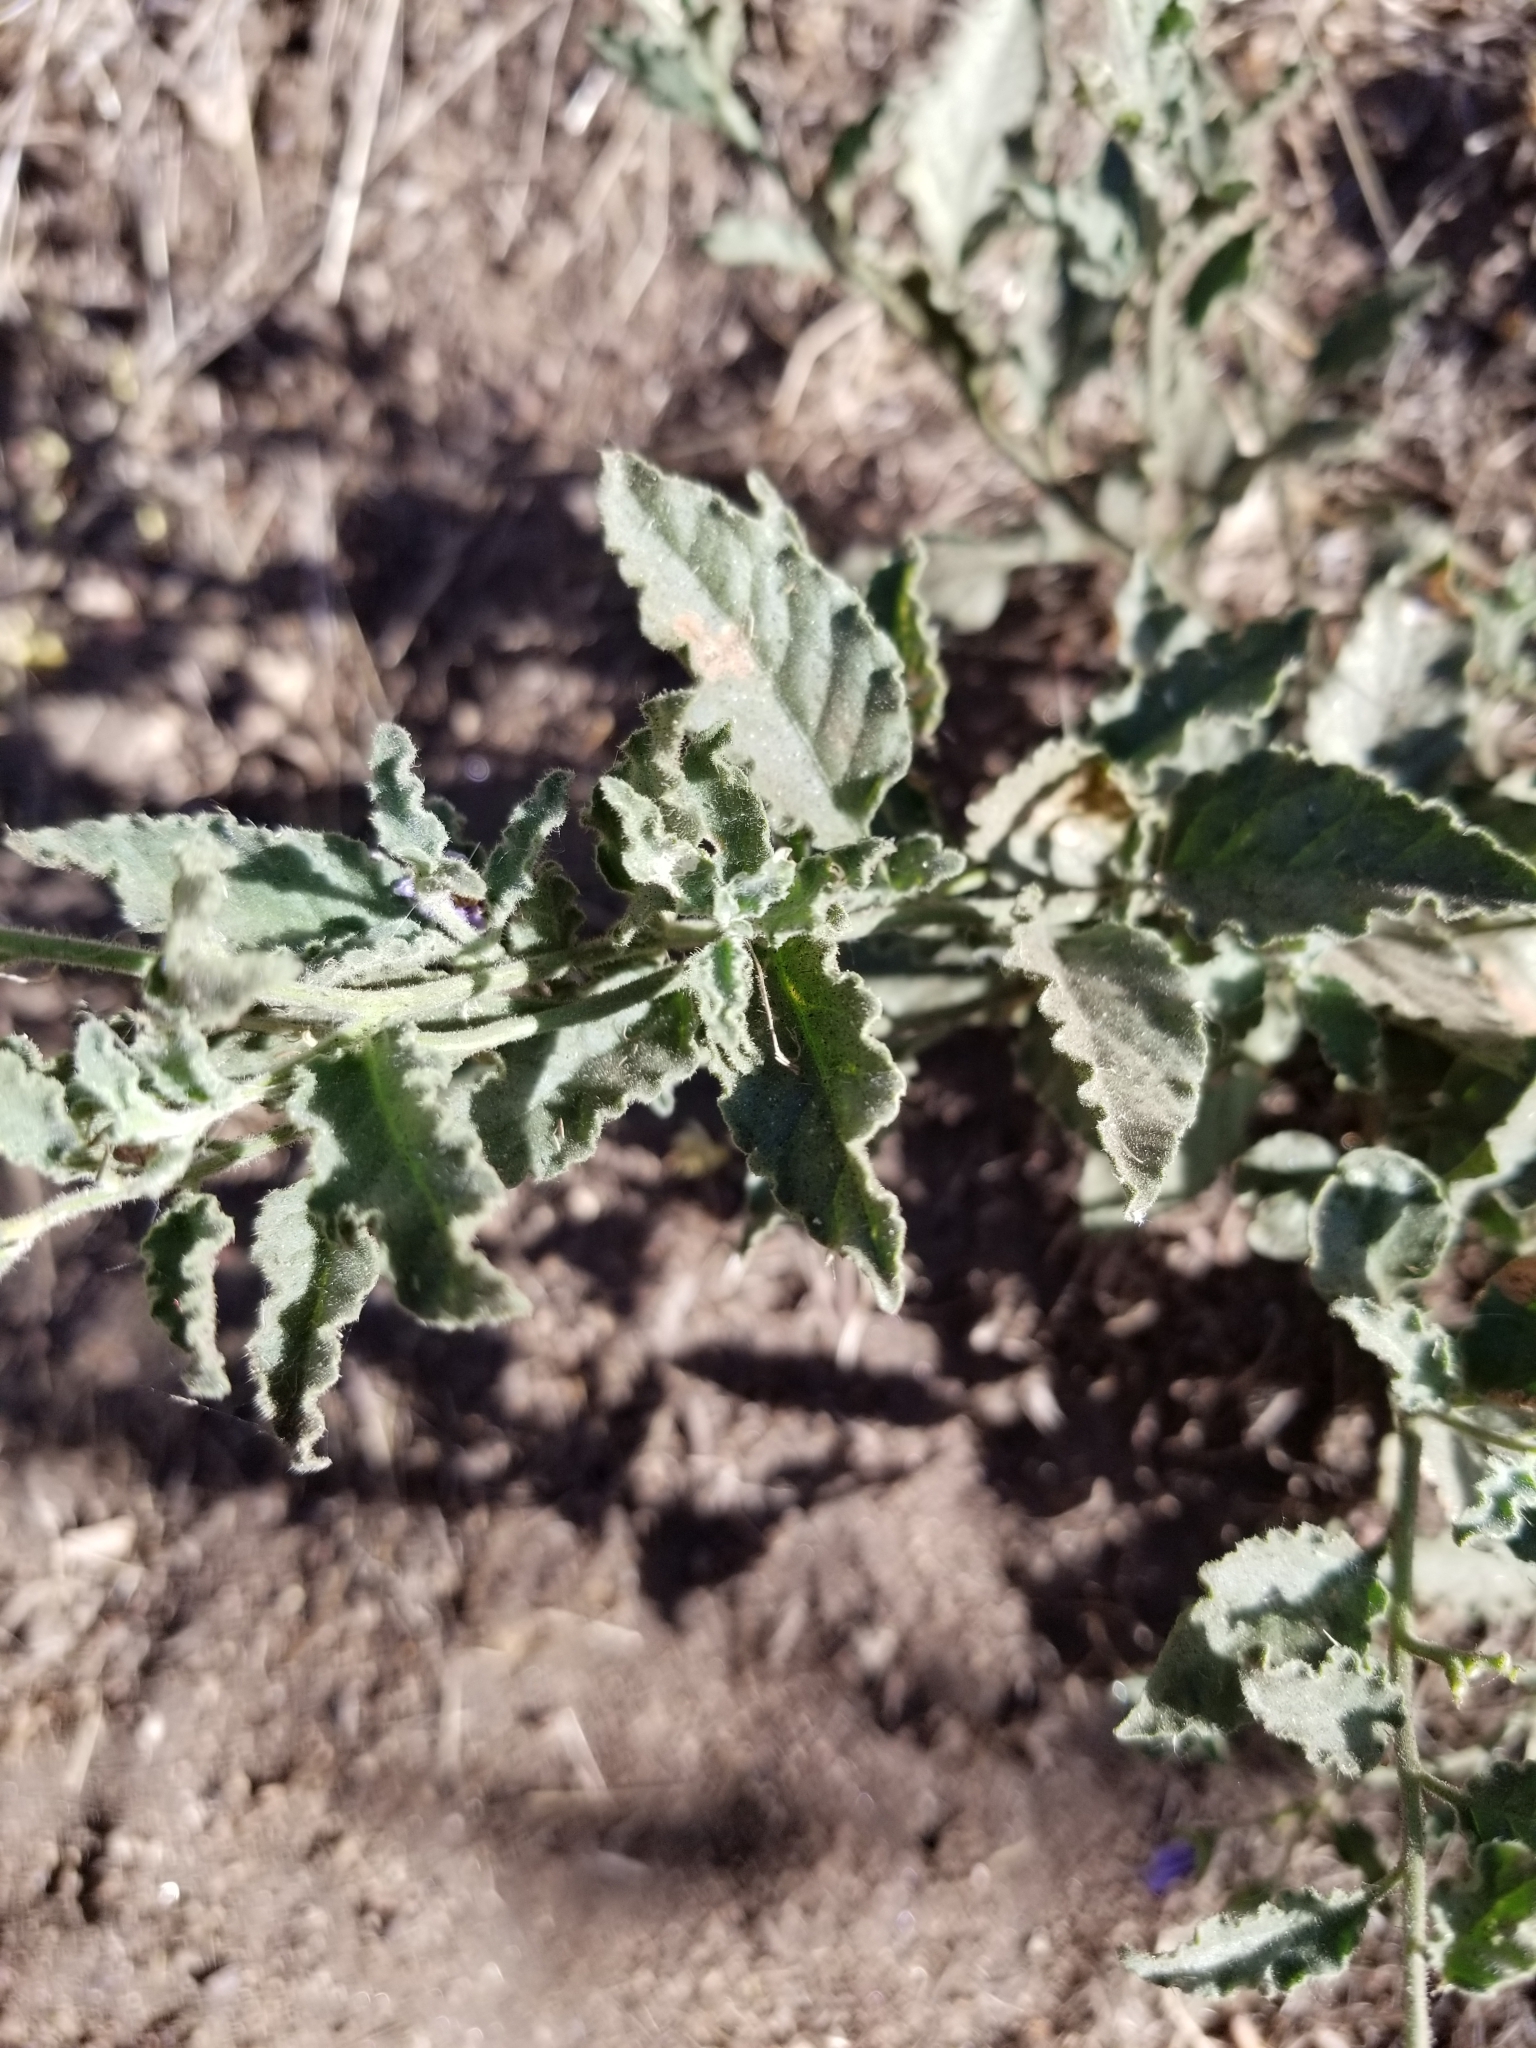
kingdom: Plantae
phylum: Tracheophyta
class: Magnoliopsida
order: Solanales
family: Solanaceae
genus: Solanum
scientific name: Solanum umbelliferum
